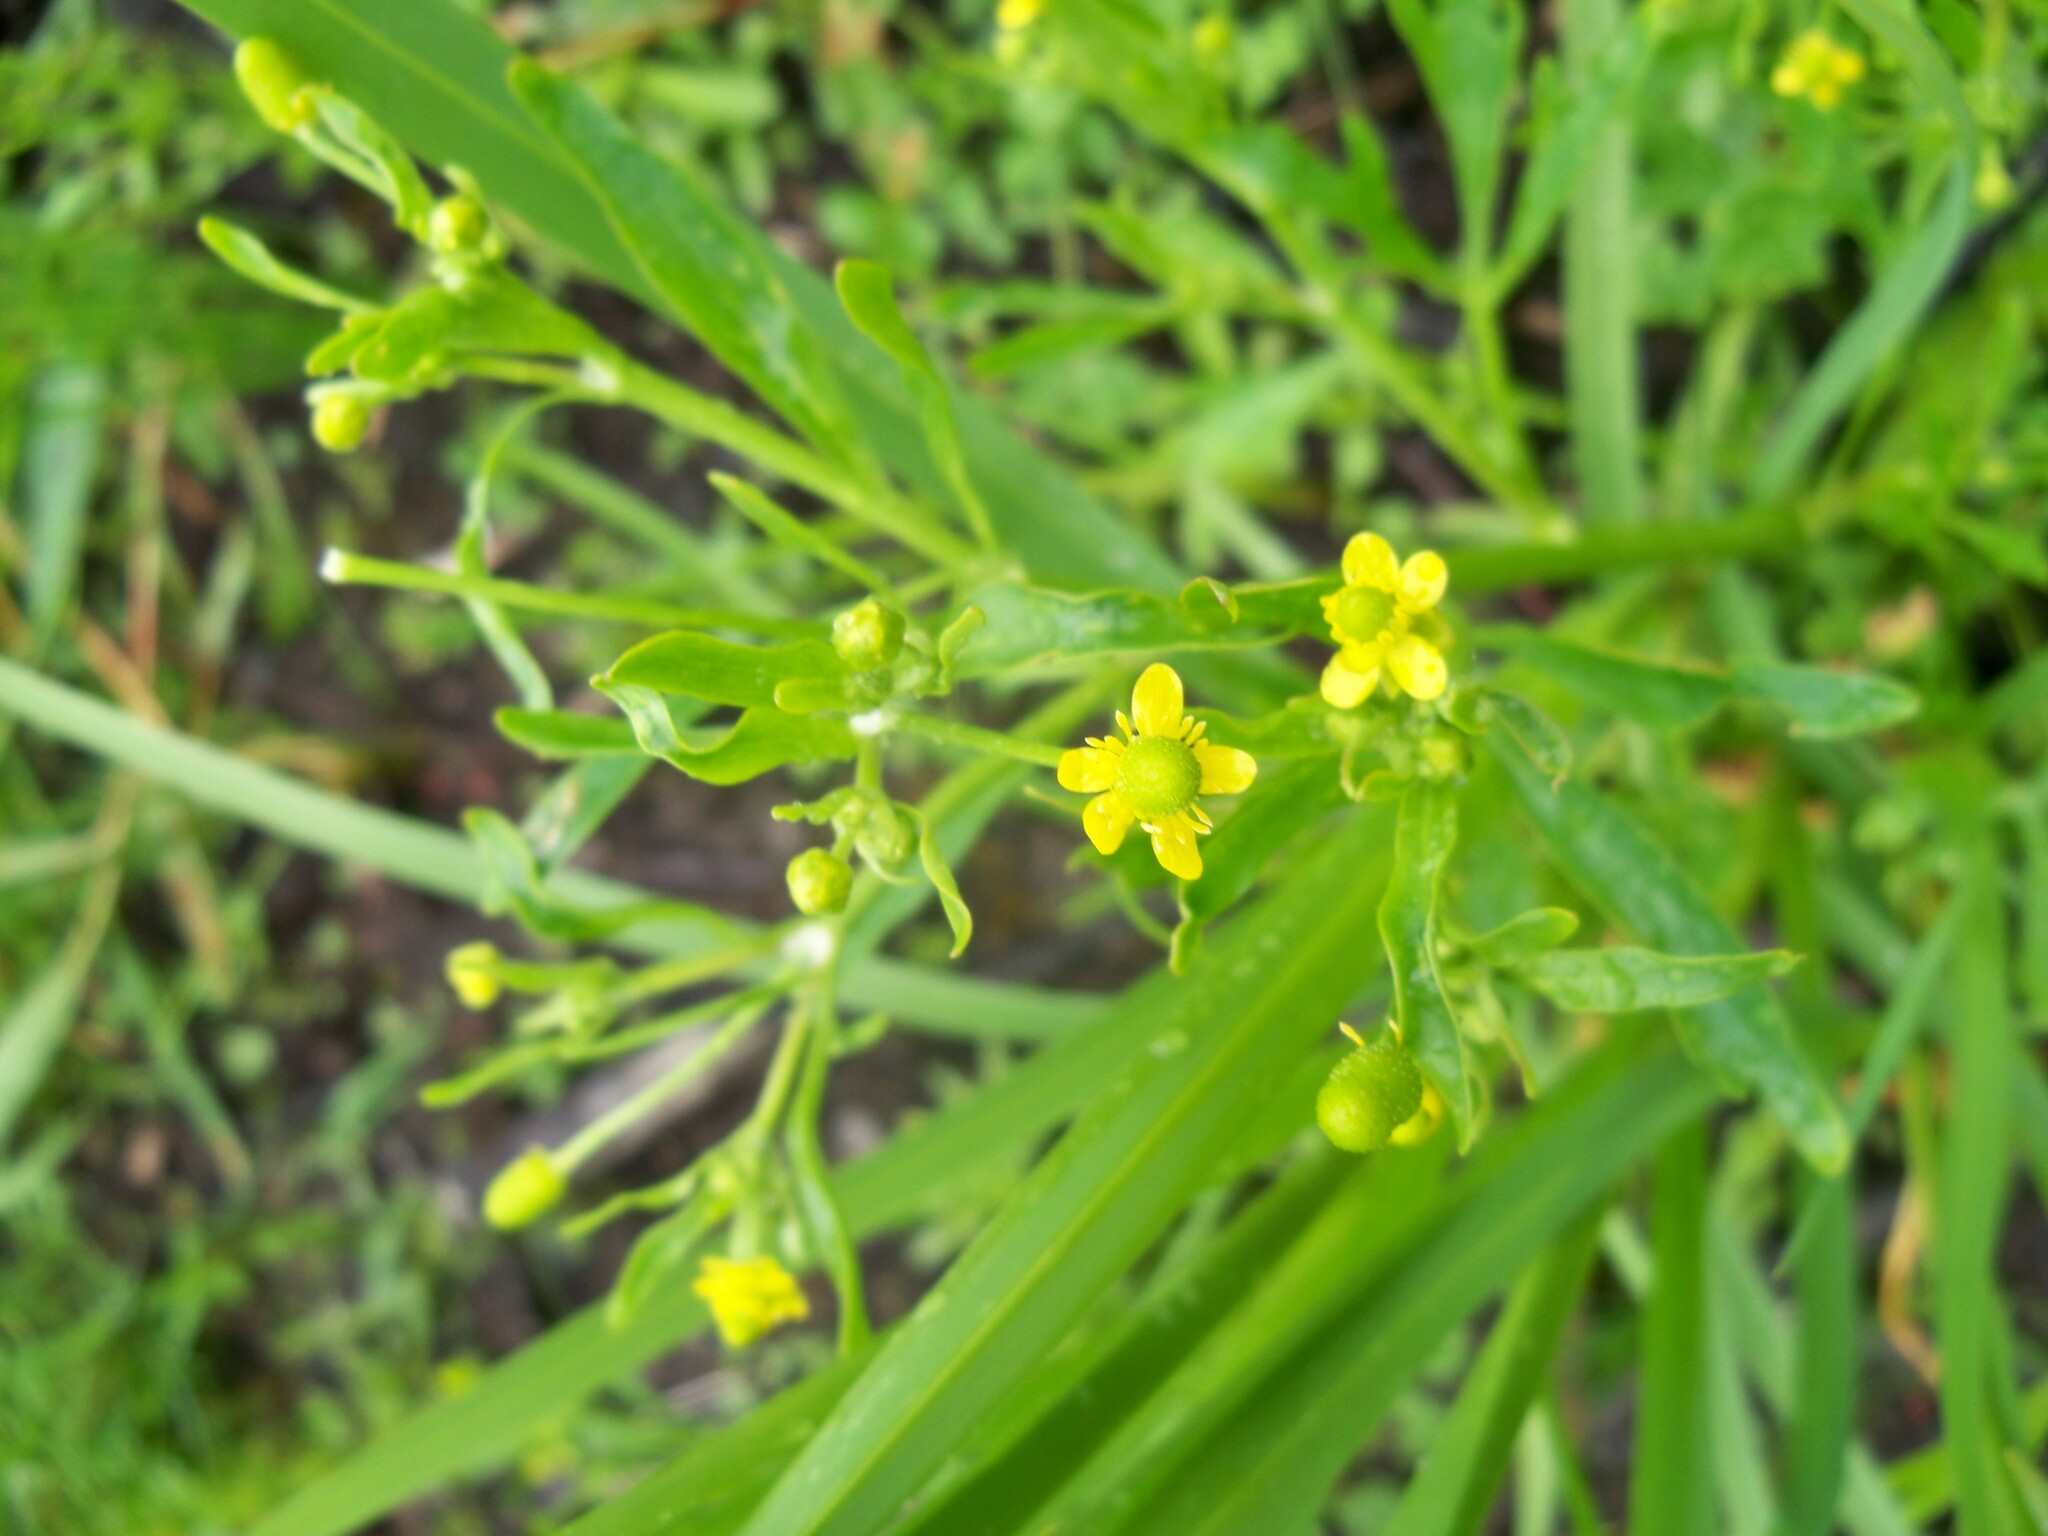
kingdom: Plantae
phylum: Tracheophyta
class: Magnoliopsida
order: Ranunculales
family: Ranunculaceae
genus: Ranunculus
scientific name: Ranunculus sceleratus
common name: Celery-leaved buttercup
